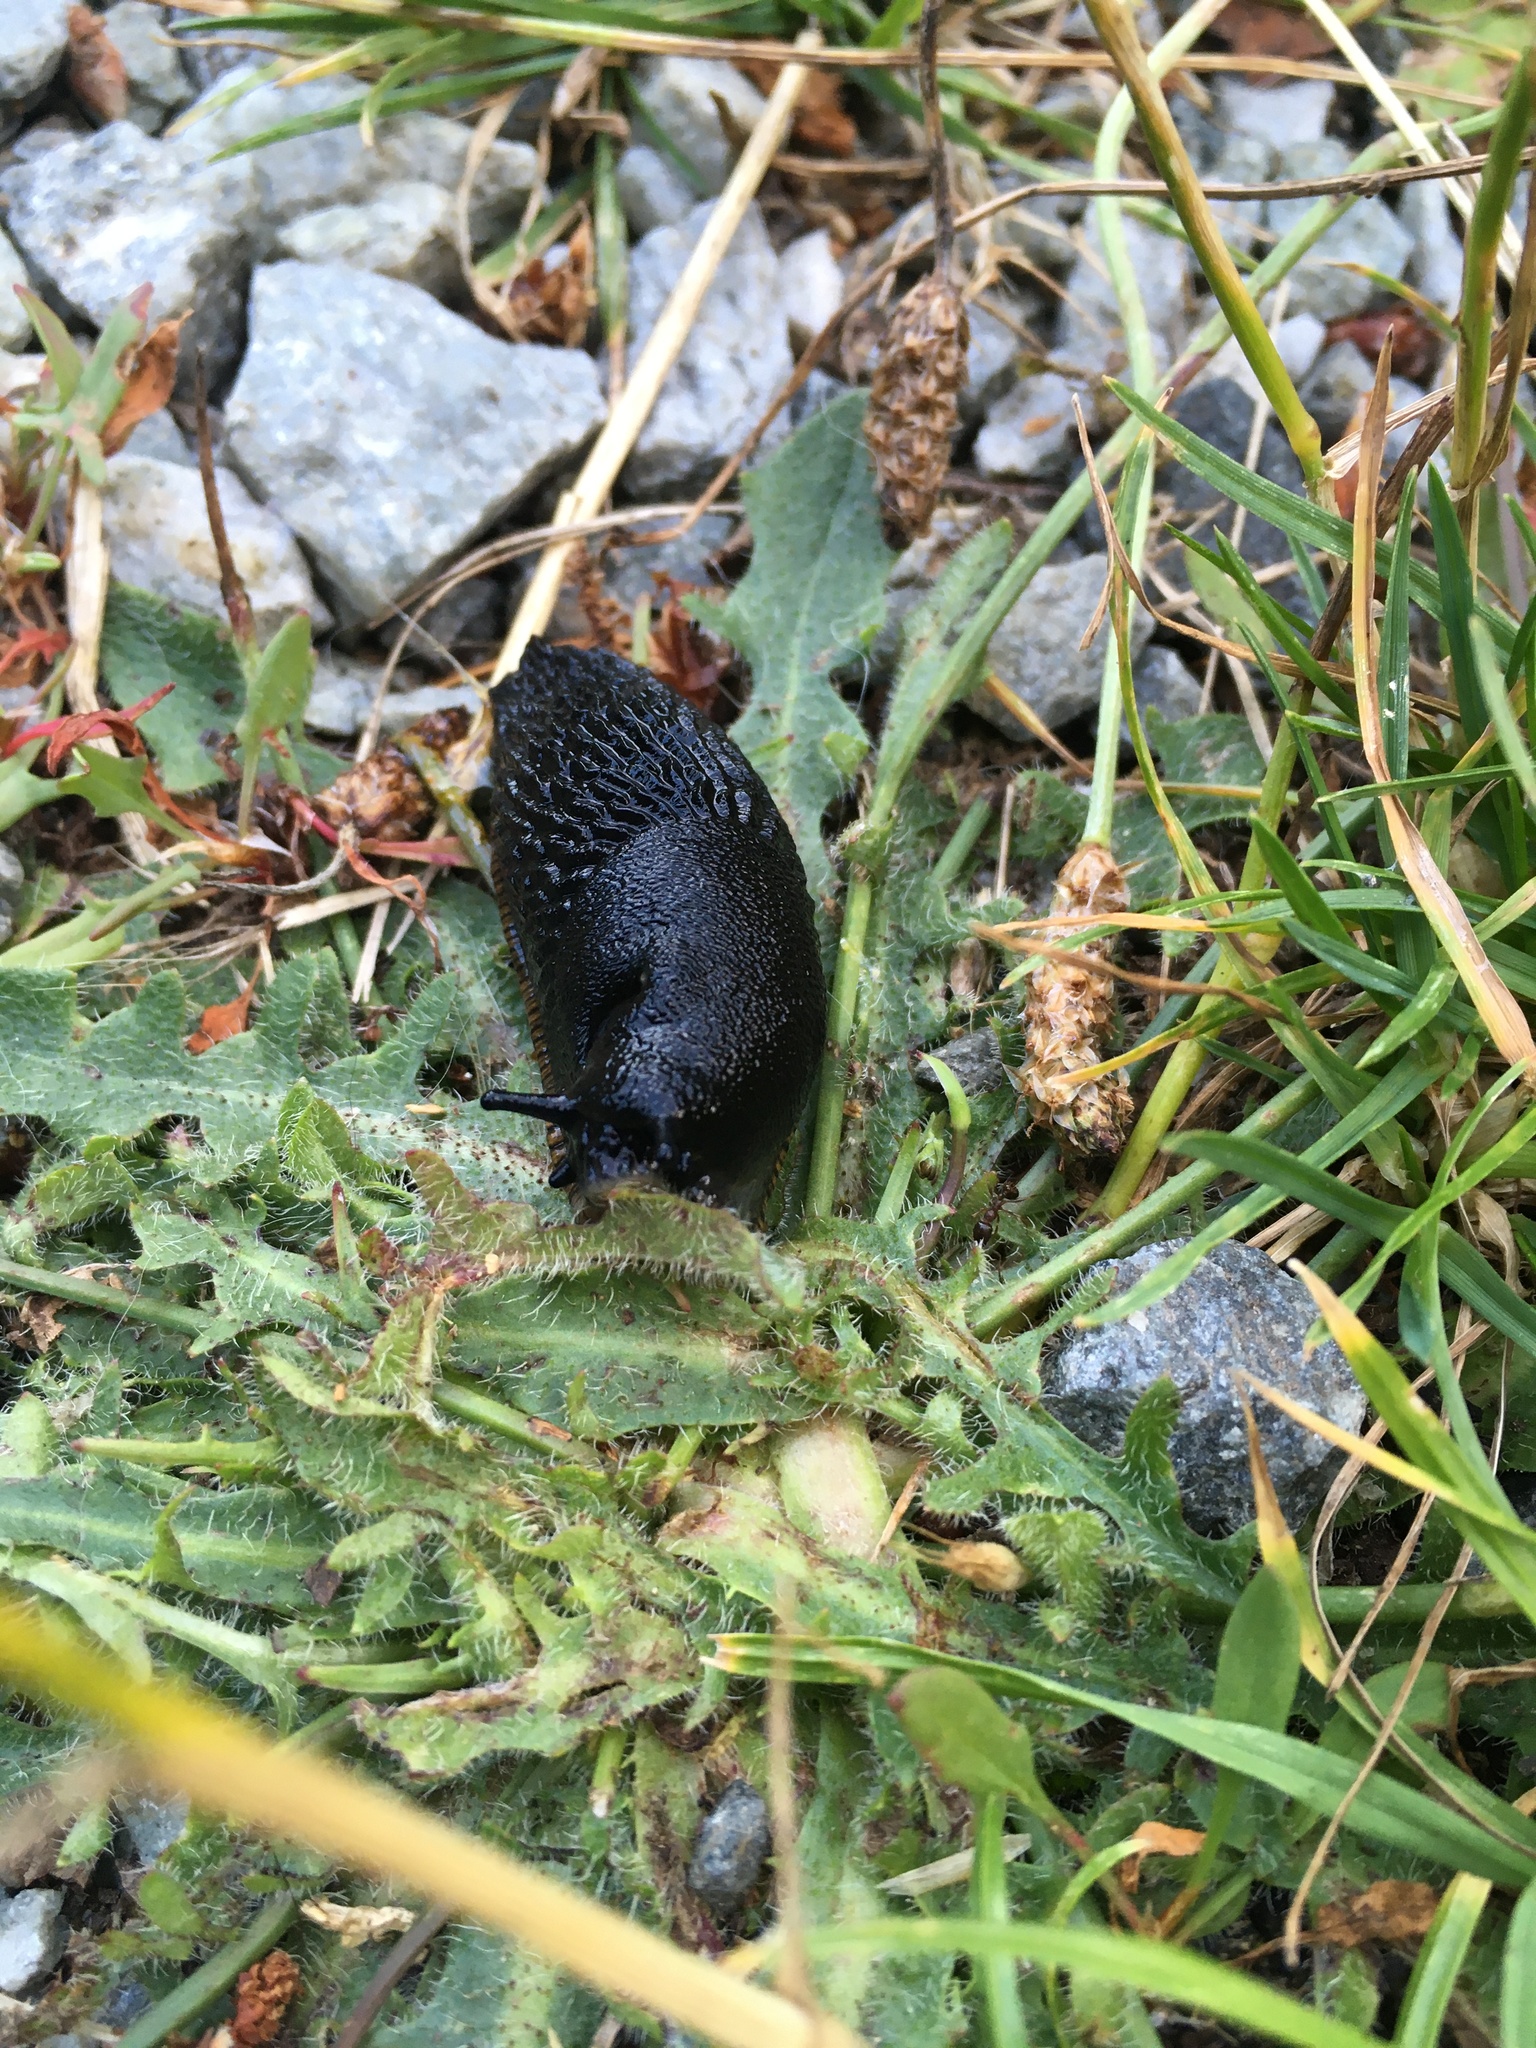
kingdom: Animalia
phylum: Mollusca
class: Gastropoda
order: Stylommatophora
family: Arionidae
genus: Arion
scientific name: Arion
